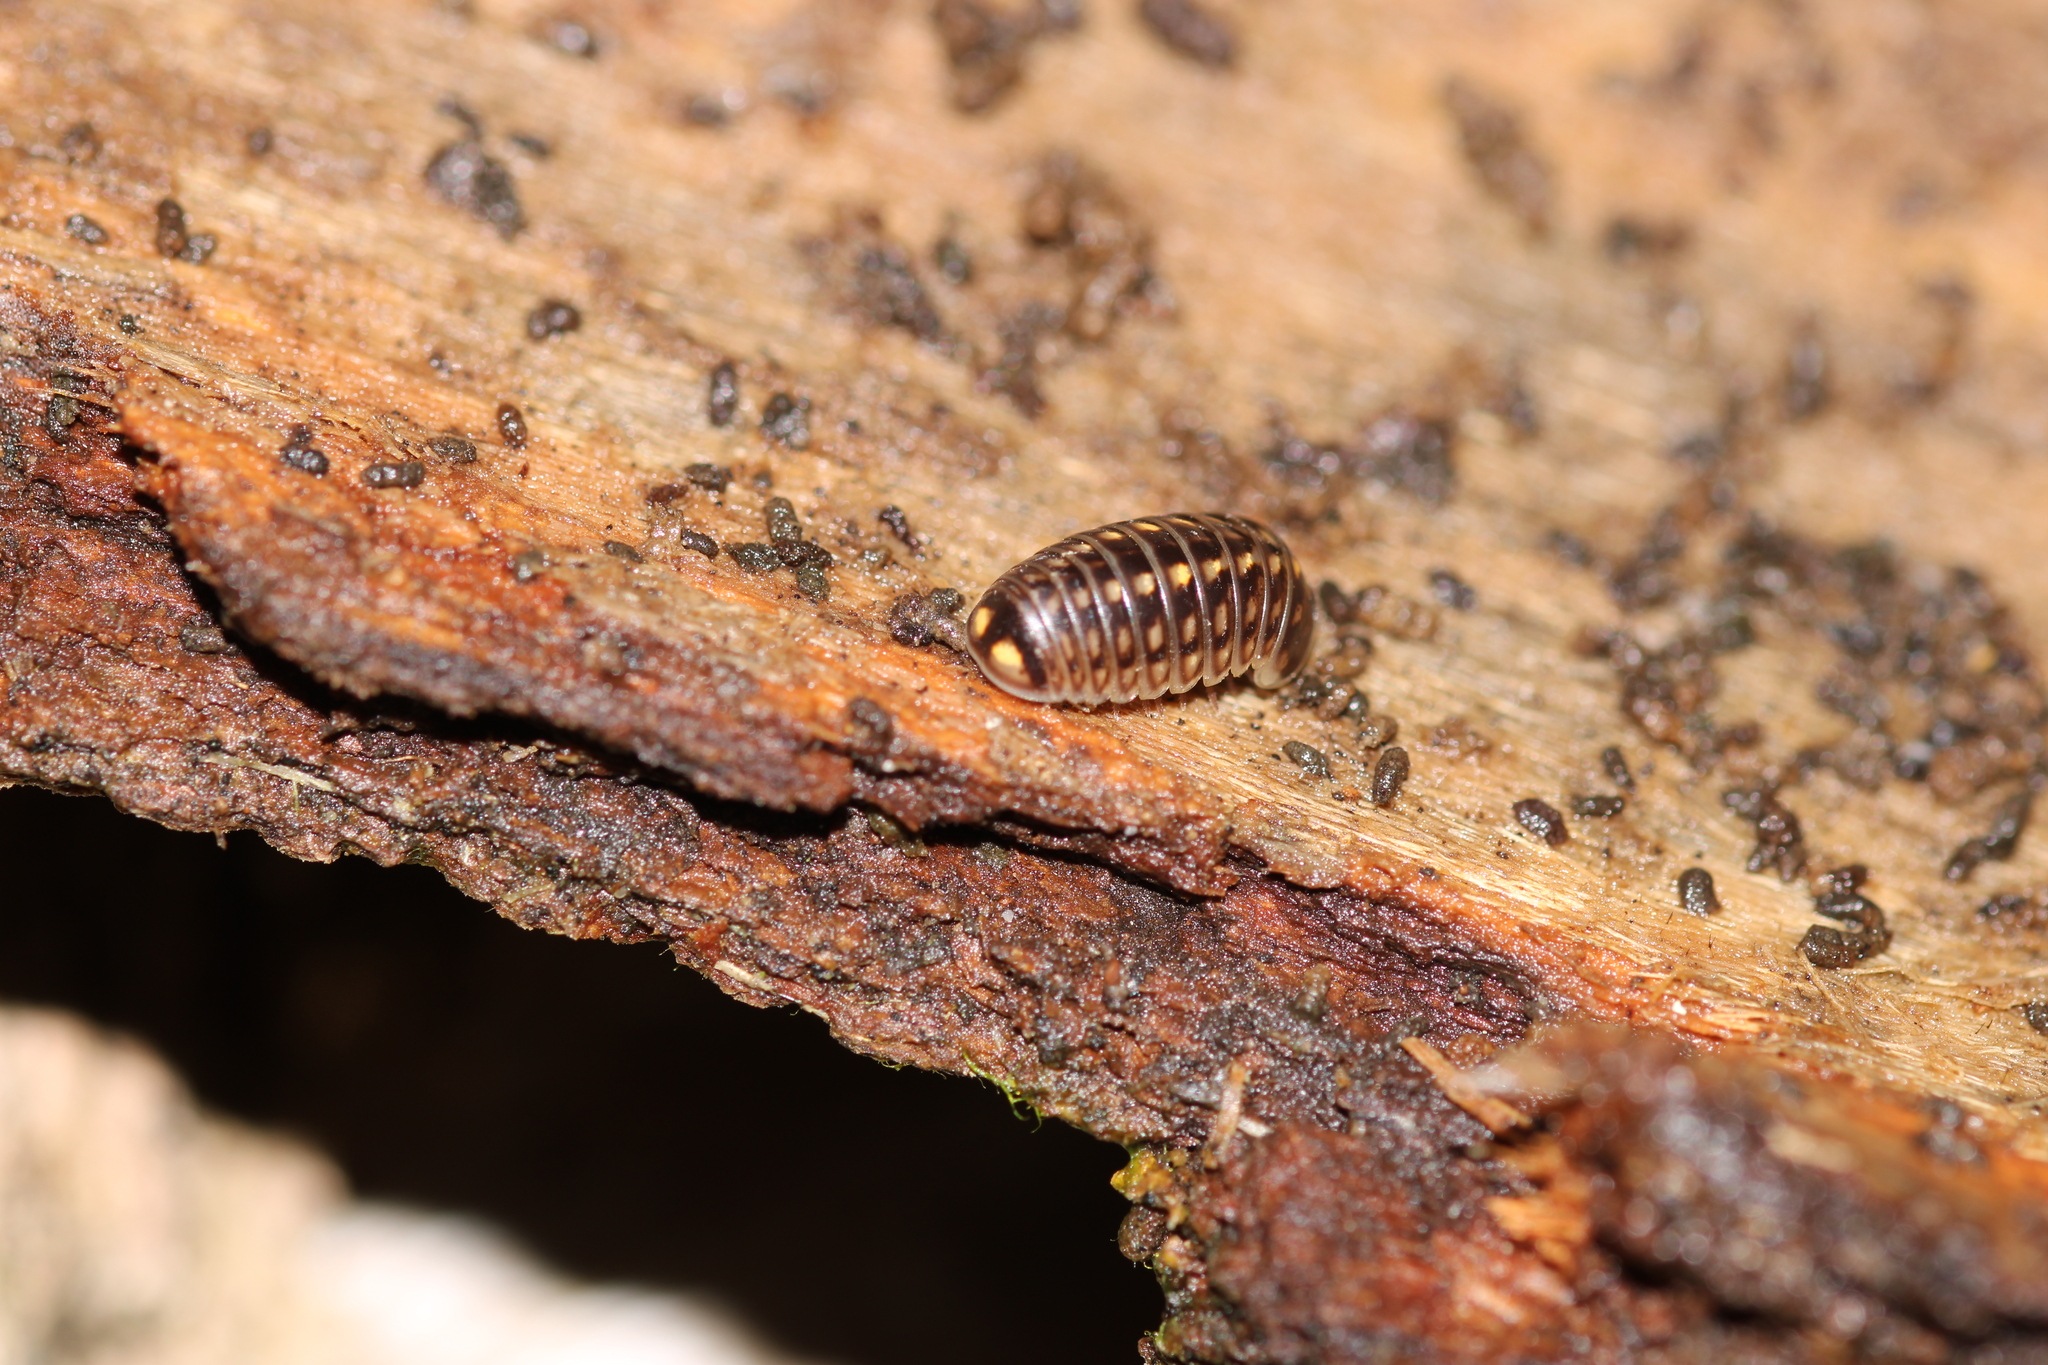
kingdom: Animalia
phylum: Arthropoda
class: Diplopoda
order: Glomerida
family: Glomeridae
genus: Glomeris
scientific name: Glomeris intermedia
